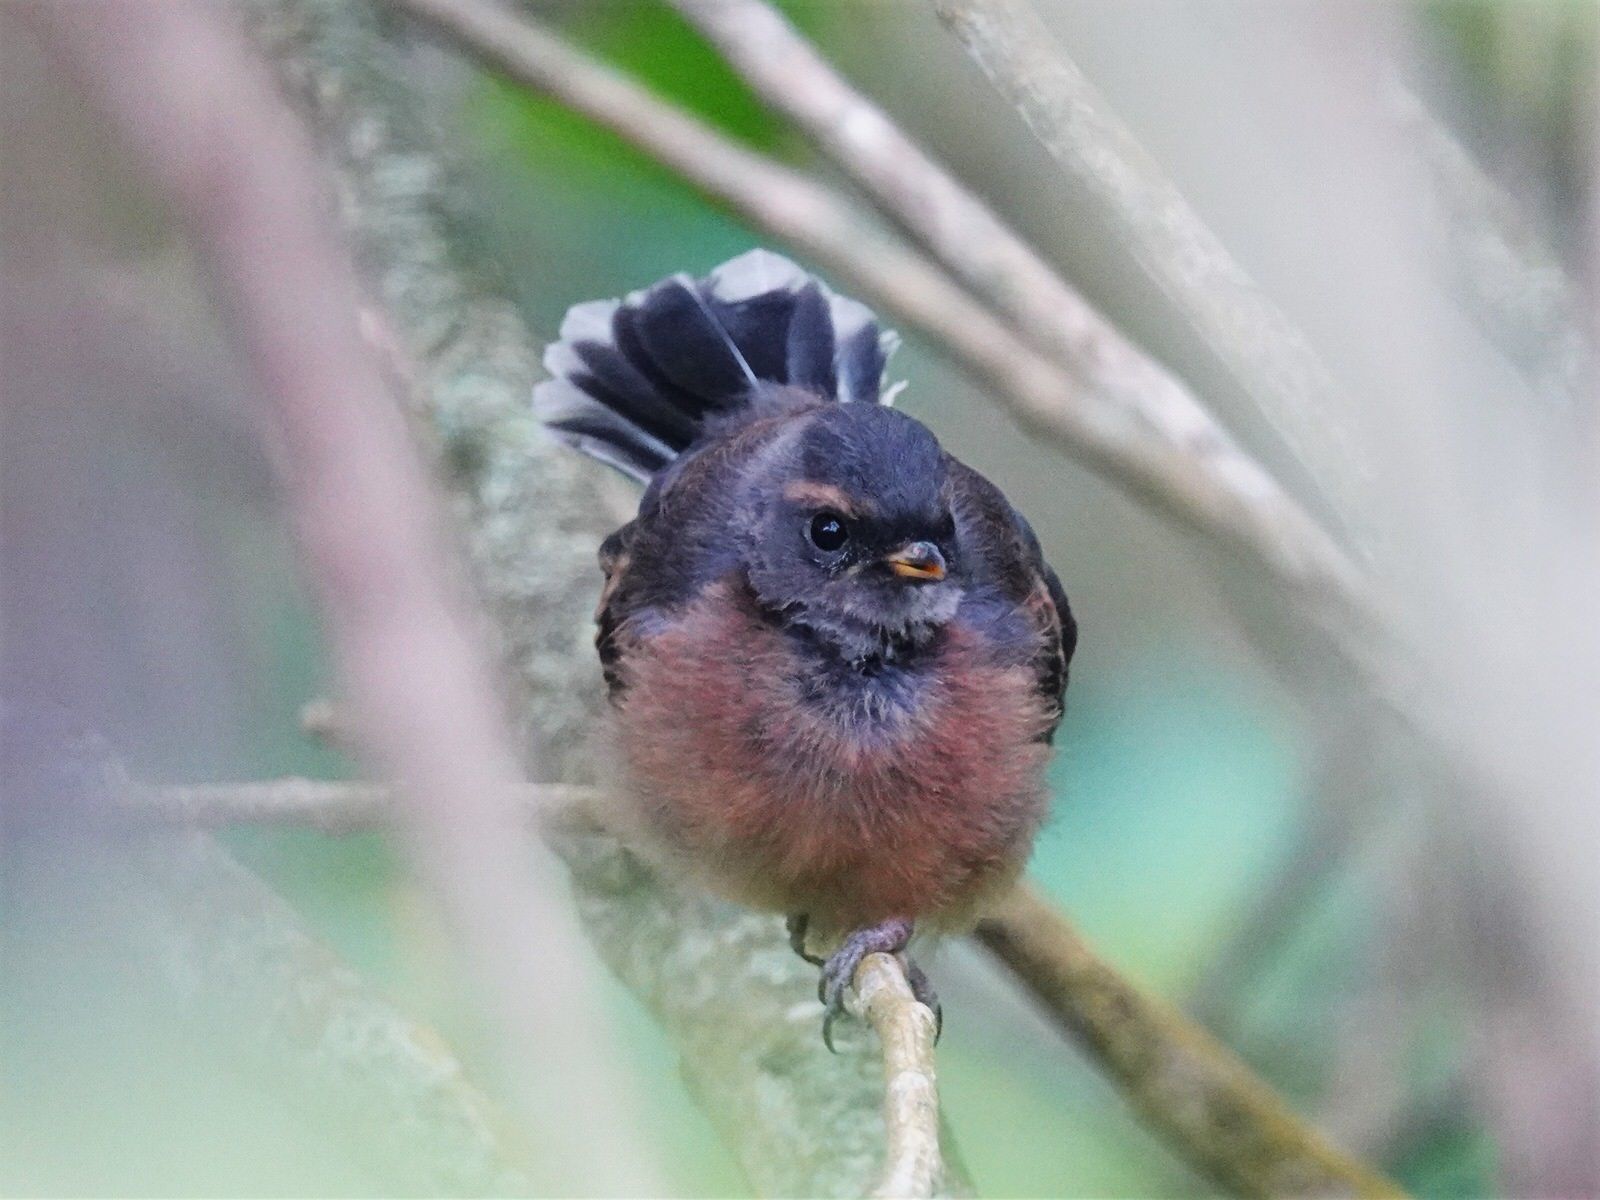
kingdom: Animalia
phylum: Chordata
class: Aves
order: Passeriformes
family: Rhipiduridae
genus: Rhipidura
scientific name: Rhipidura fuliginosa
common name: New zealand fantail
